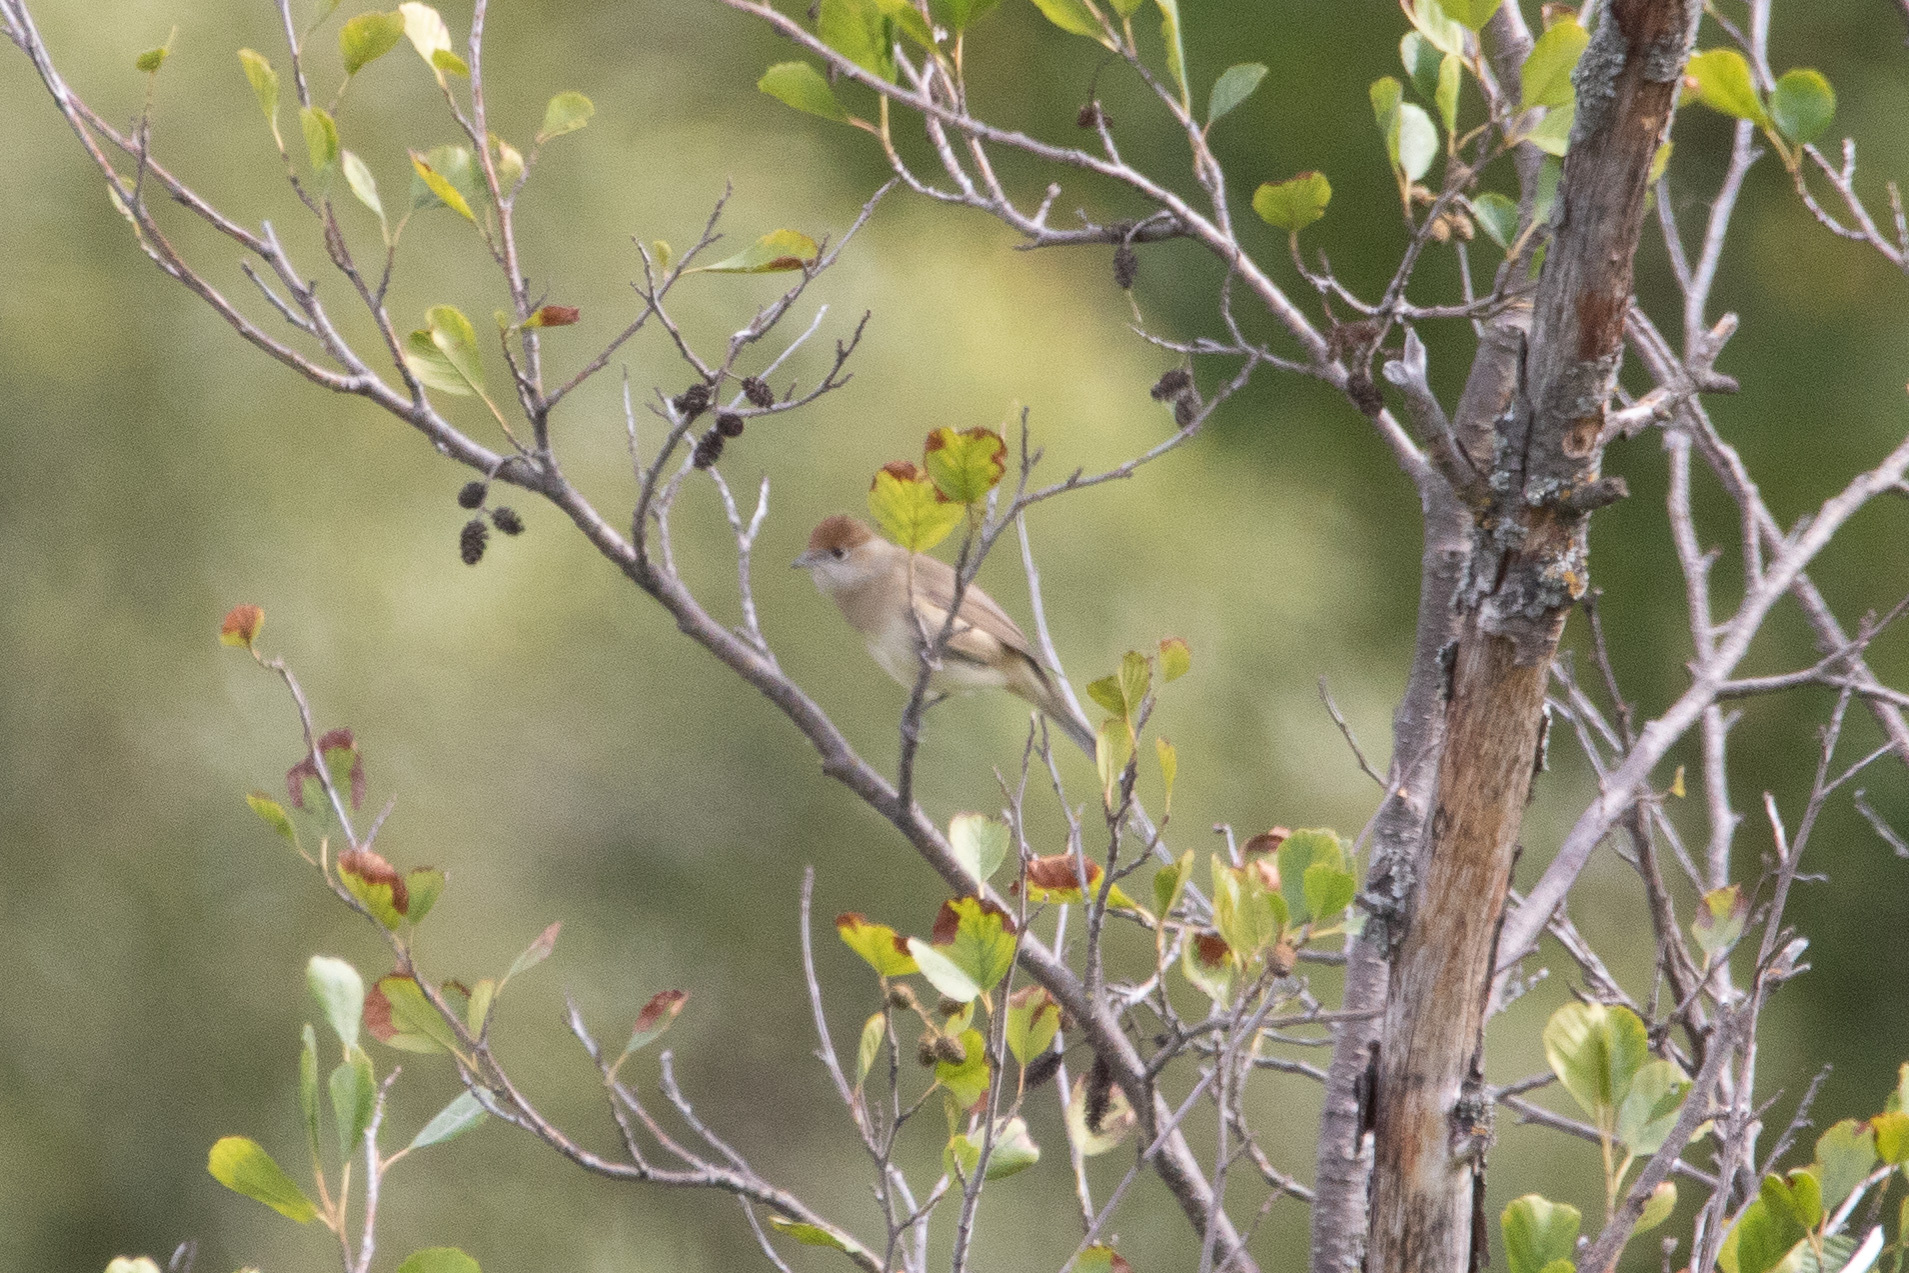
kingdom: Animalia
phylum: Chordata
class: Aves
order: Passeriformes
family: Sylviidae
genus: Sylvia
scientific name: Sylvia atricapilla
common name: Eurasian blackcap
